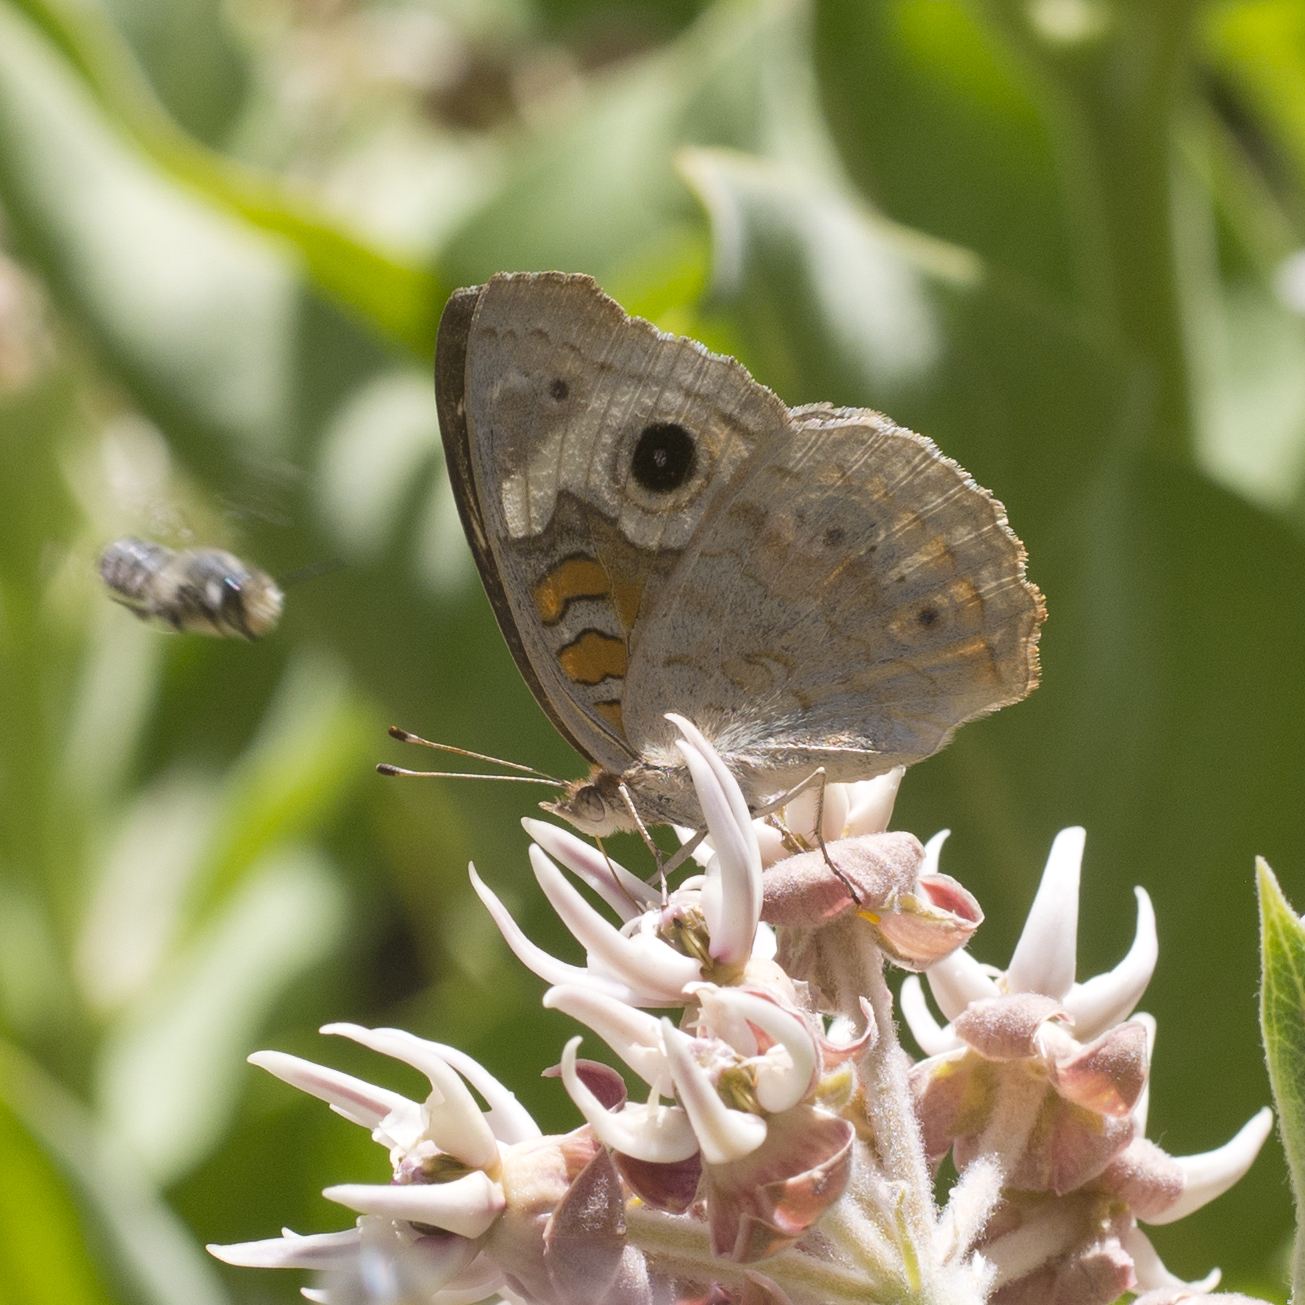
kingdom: Animalia
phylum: Arthropoda
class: Insecta
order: Lepidoptera
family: Nymphalidae
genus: Junonia
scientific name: Junonia grisea
